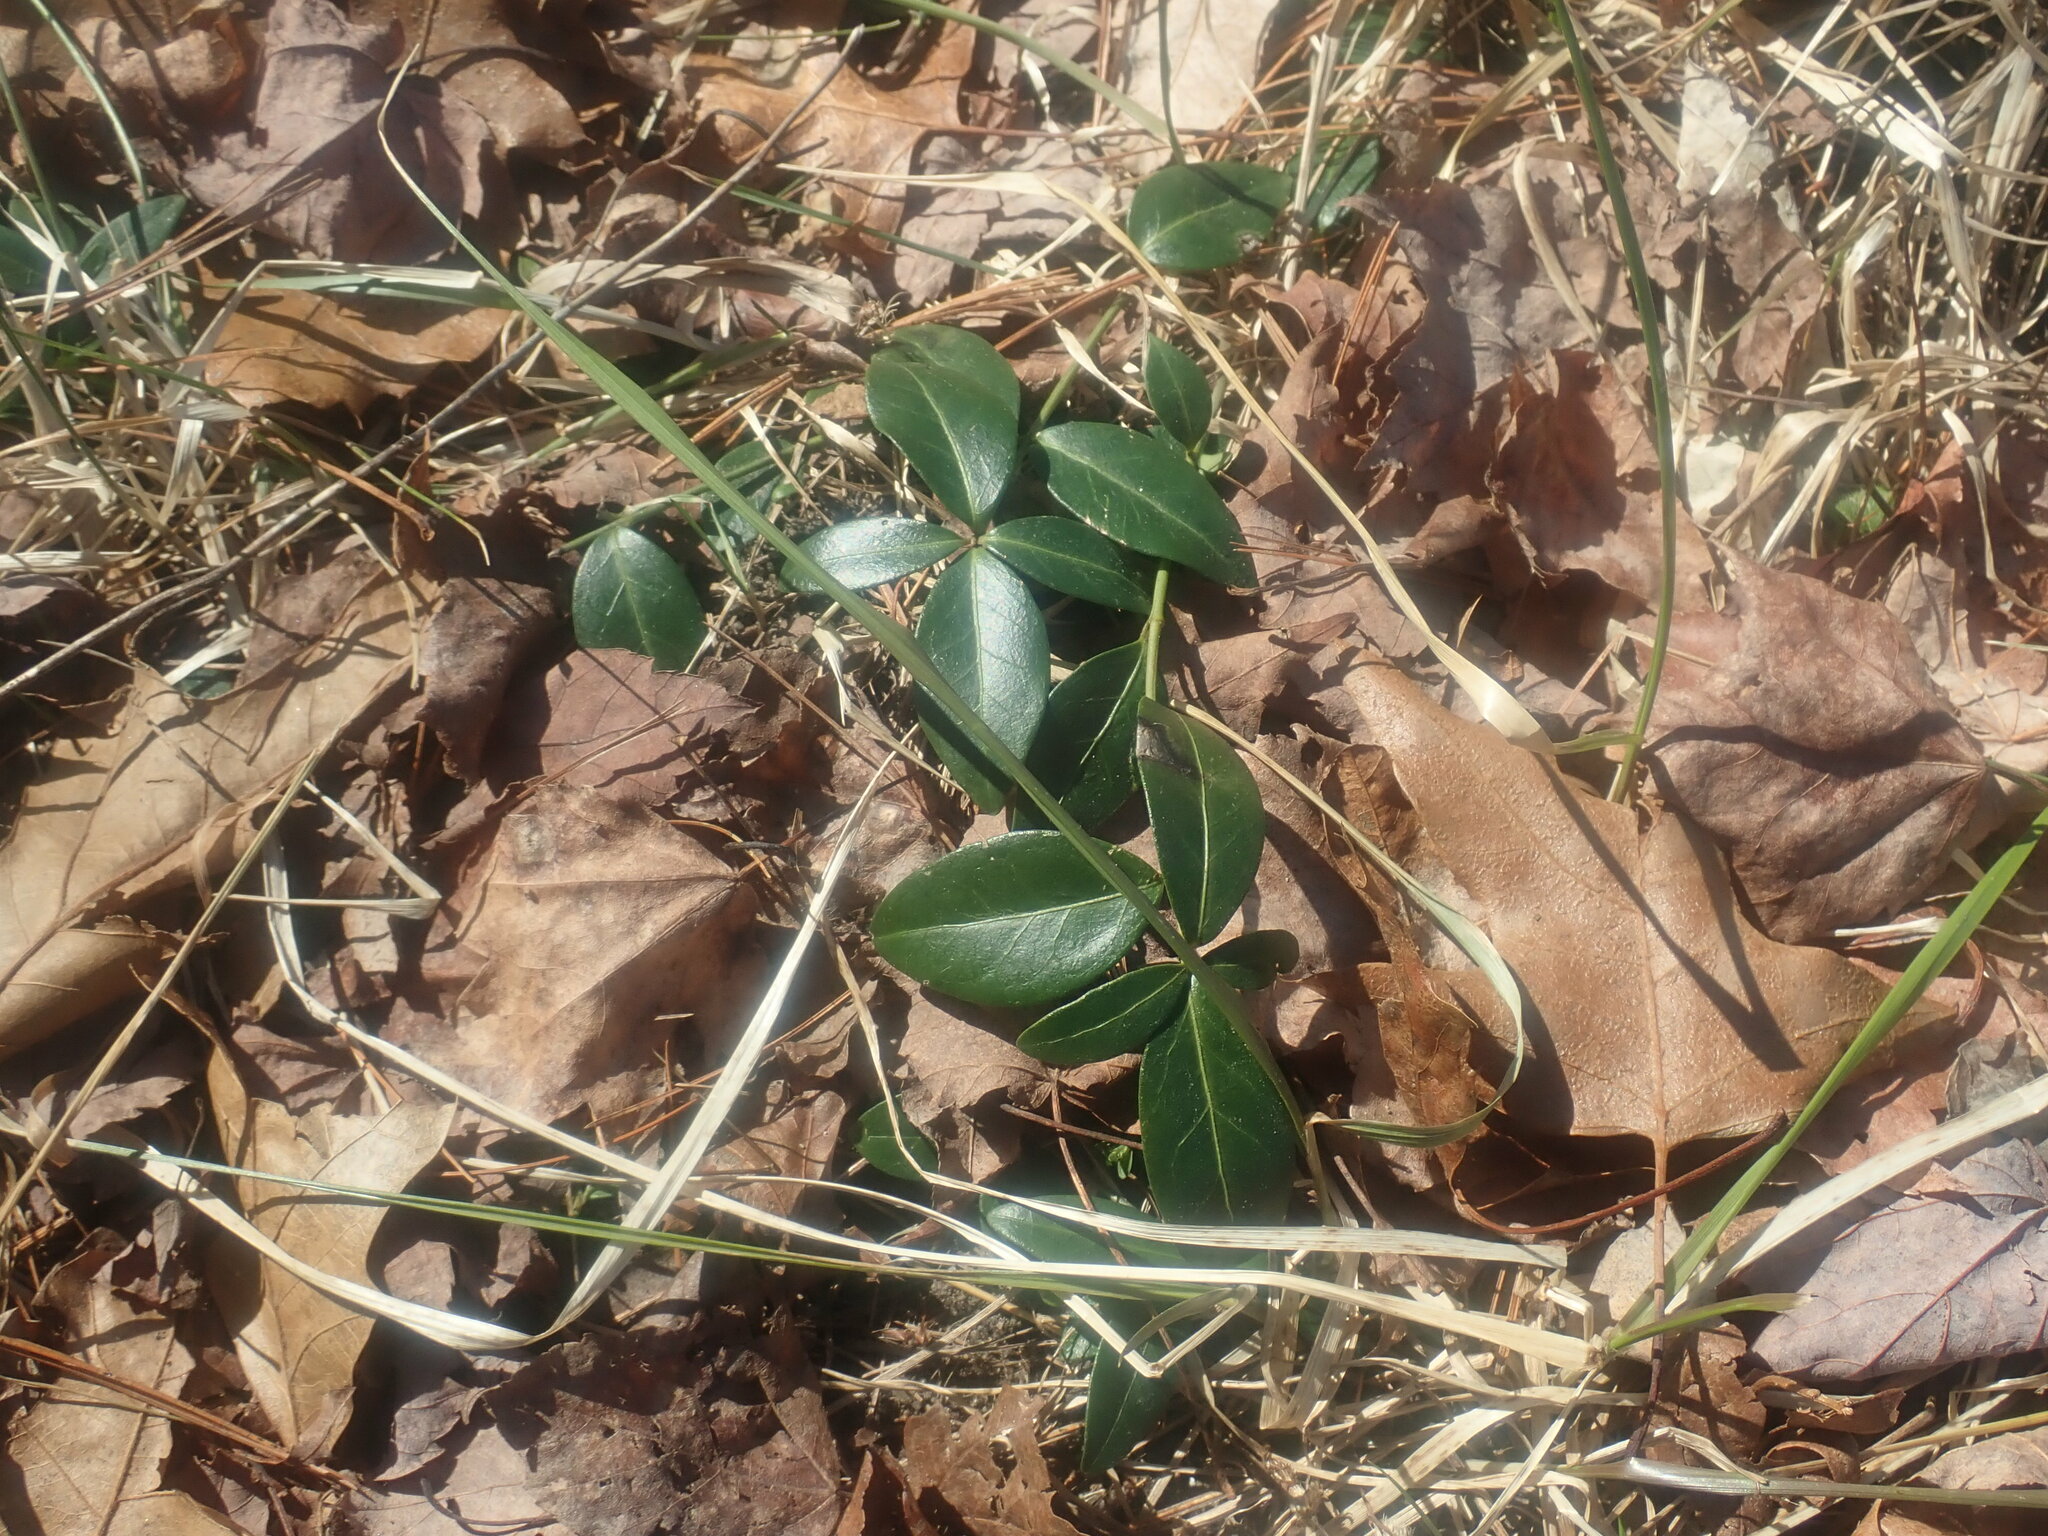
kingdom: Plantae
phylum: Tracheophyta
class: Magnoliopsida
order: Gentianales
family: Apocynaceae
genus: Vinca
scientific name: Vinca minor
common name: Lesser periwinkle
